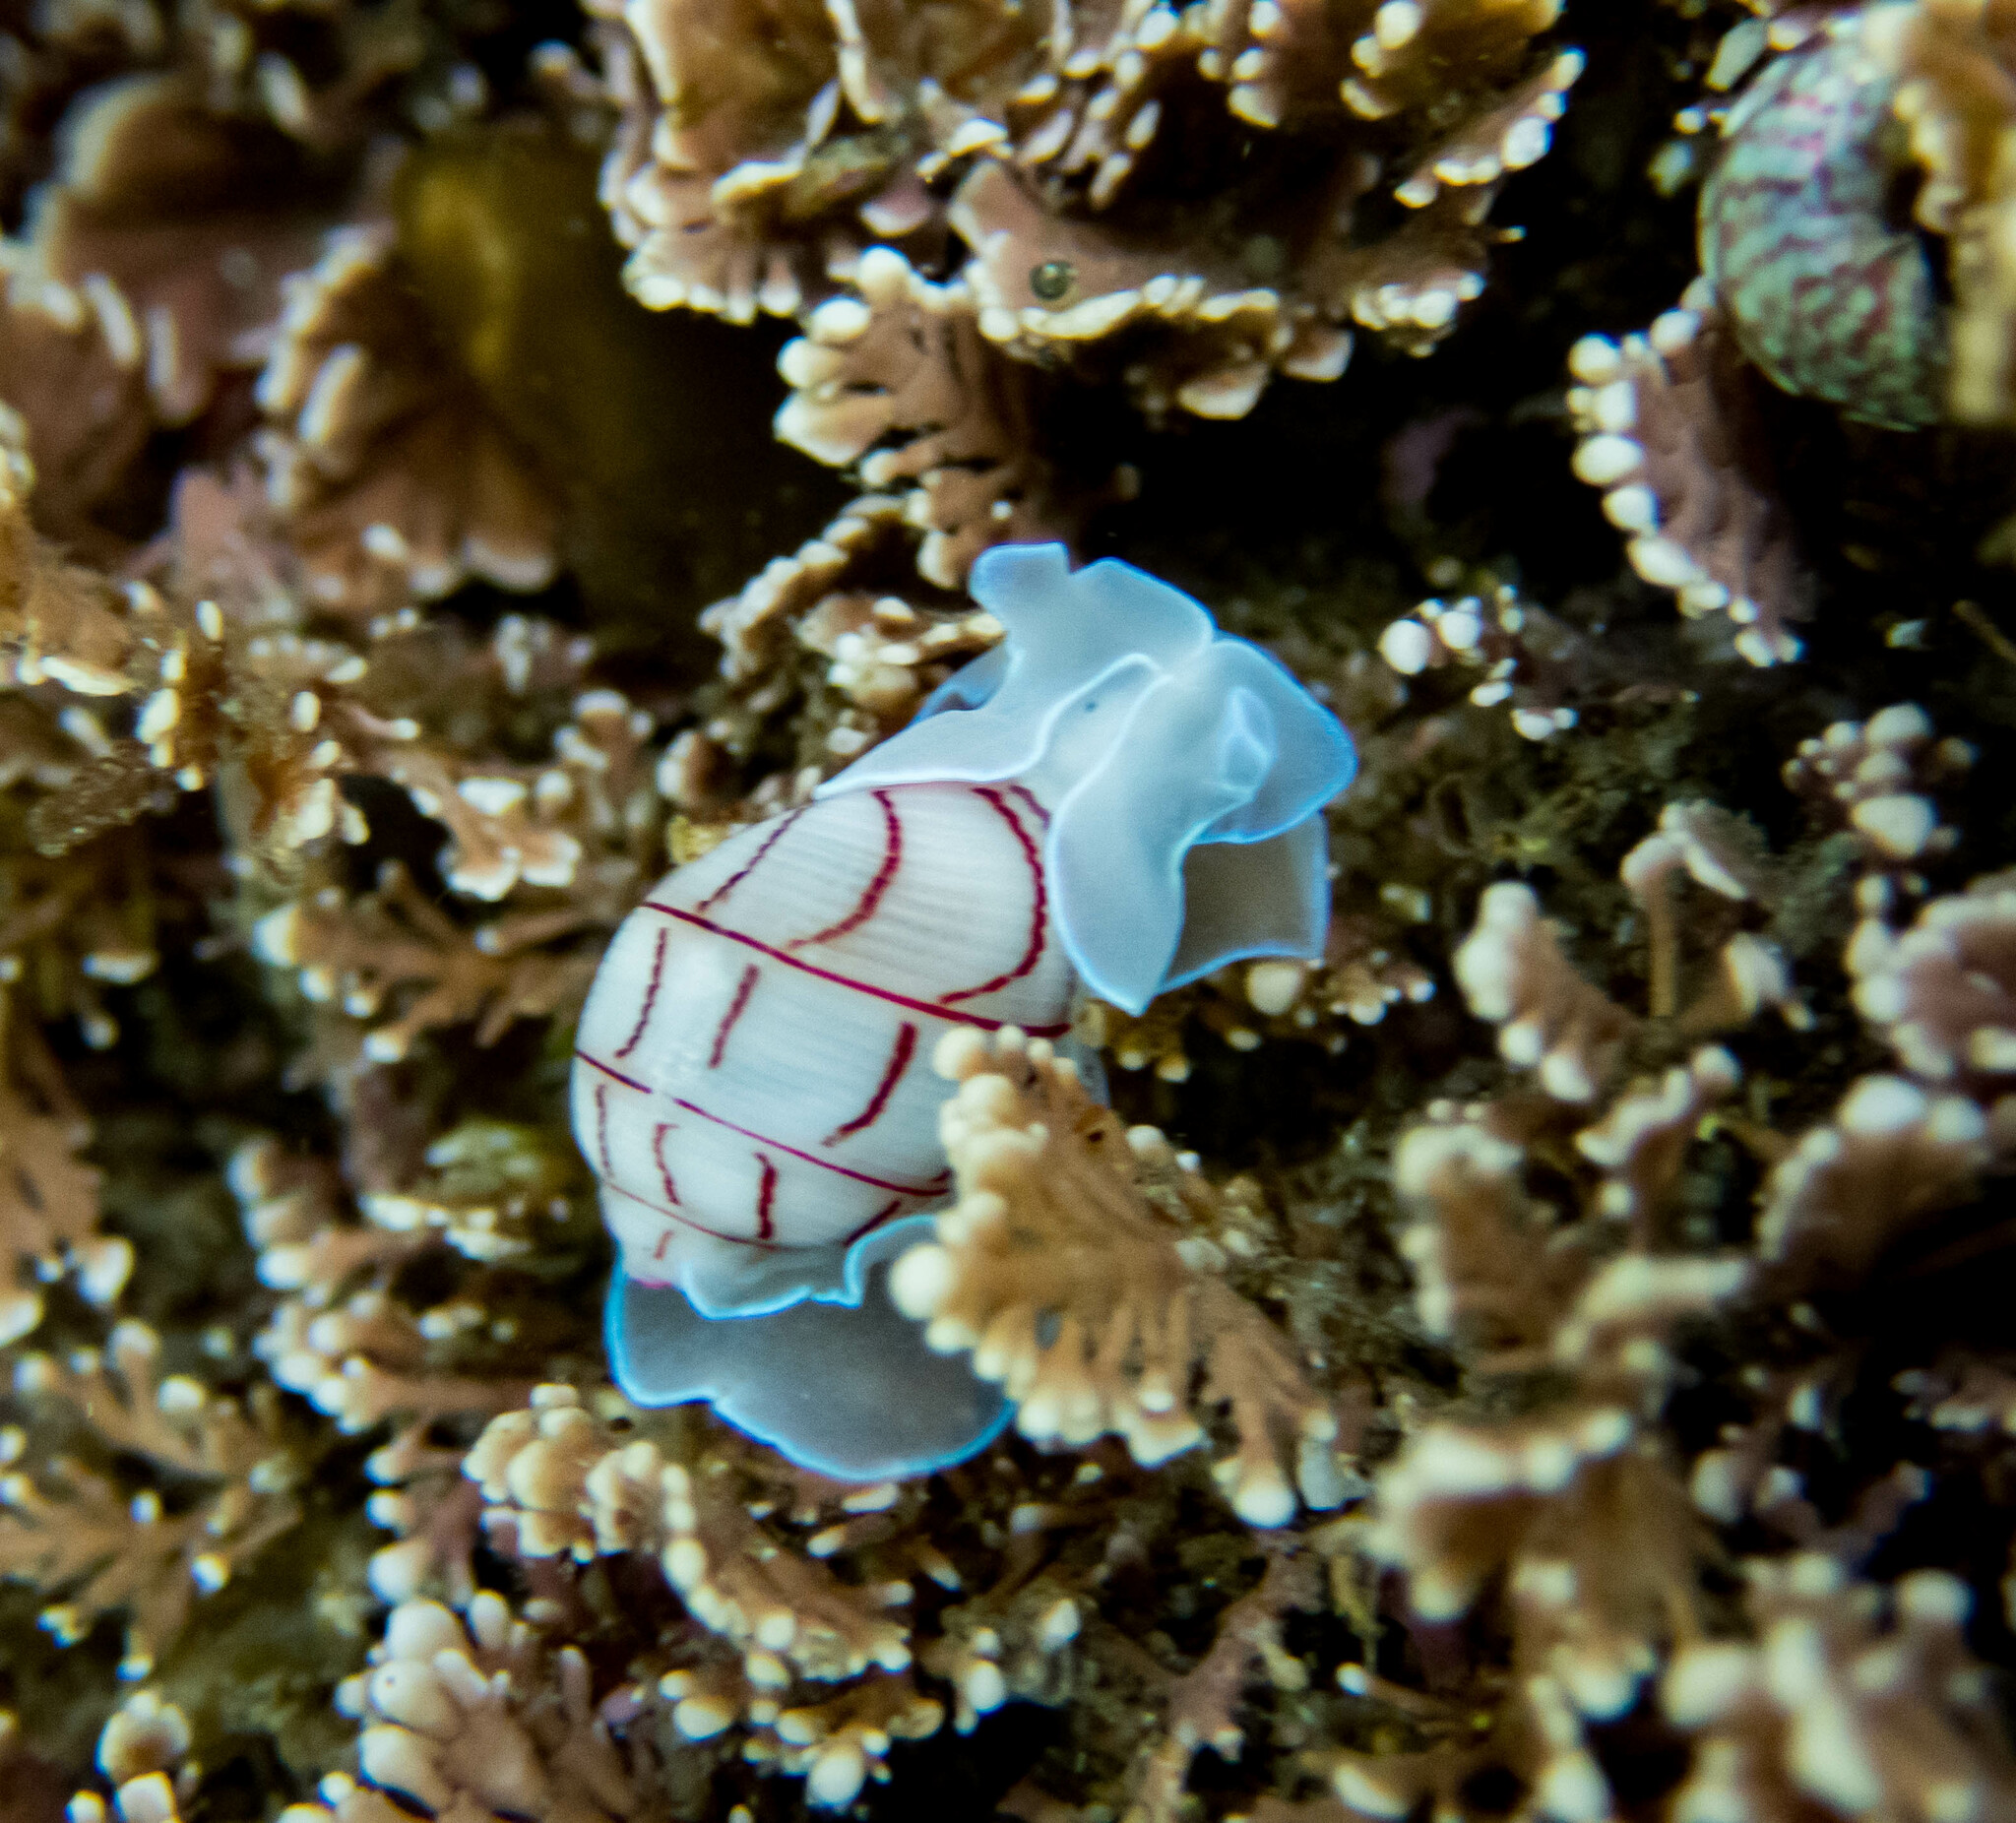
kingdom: Animalia
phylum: Mollusca
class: Gastropoda
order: Cephalaspidea
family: Aplustridae
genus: Bullina
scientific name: Bullina lineata
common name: Lined bubble snail
